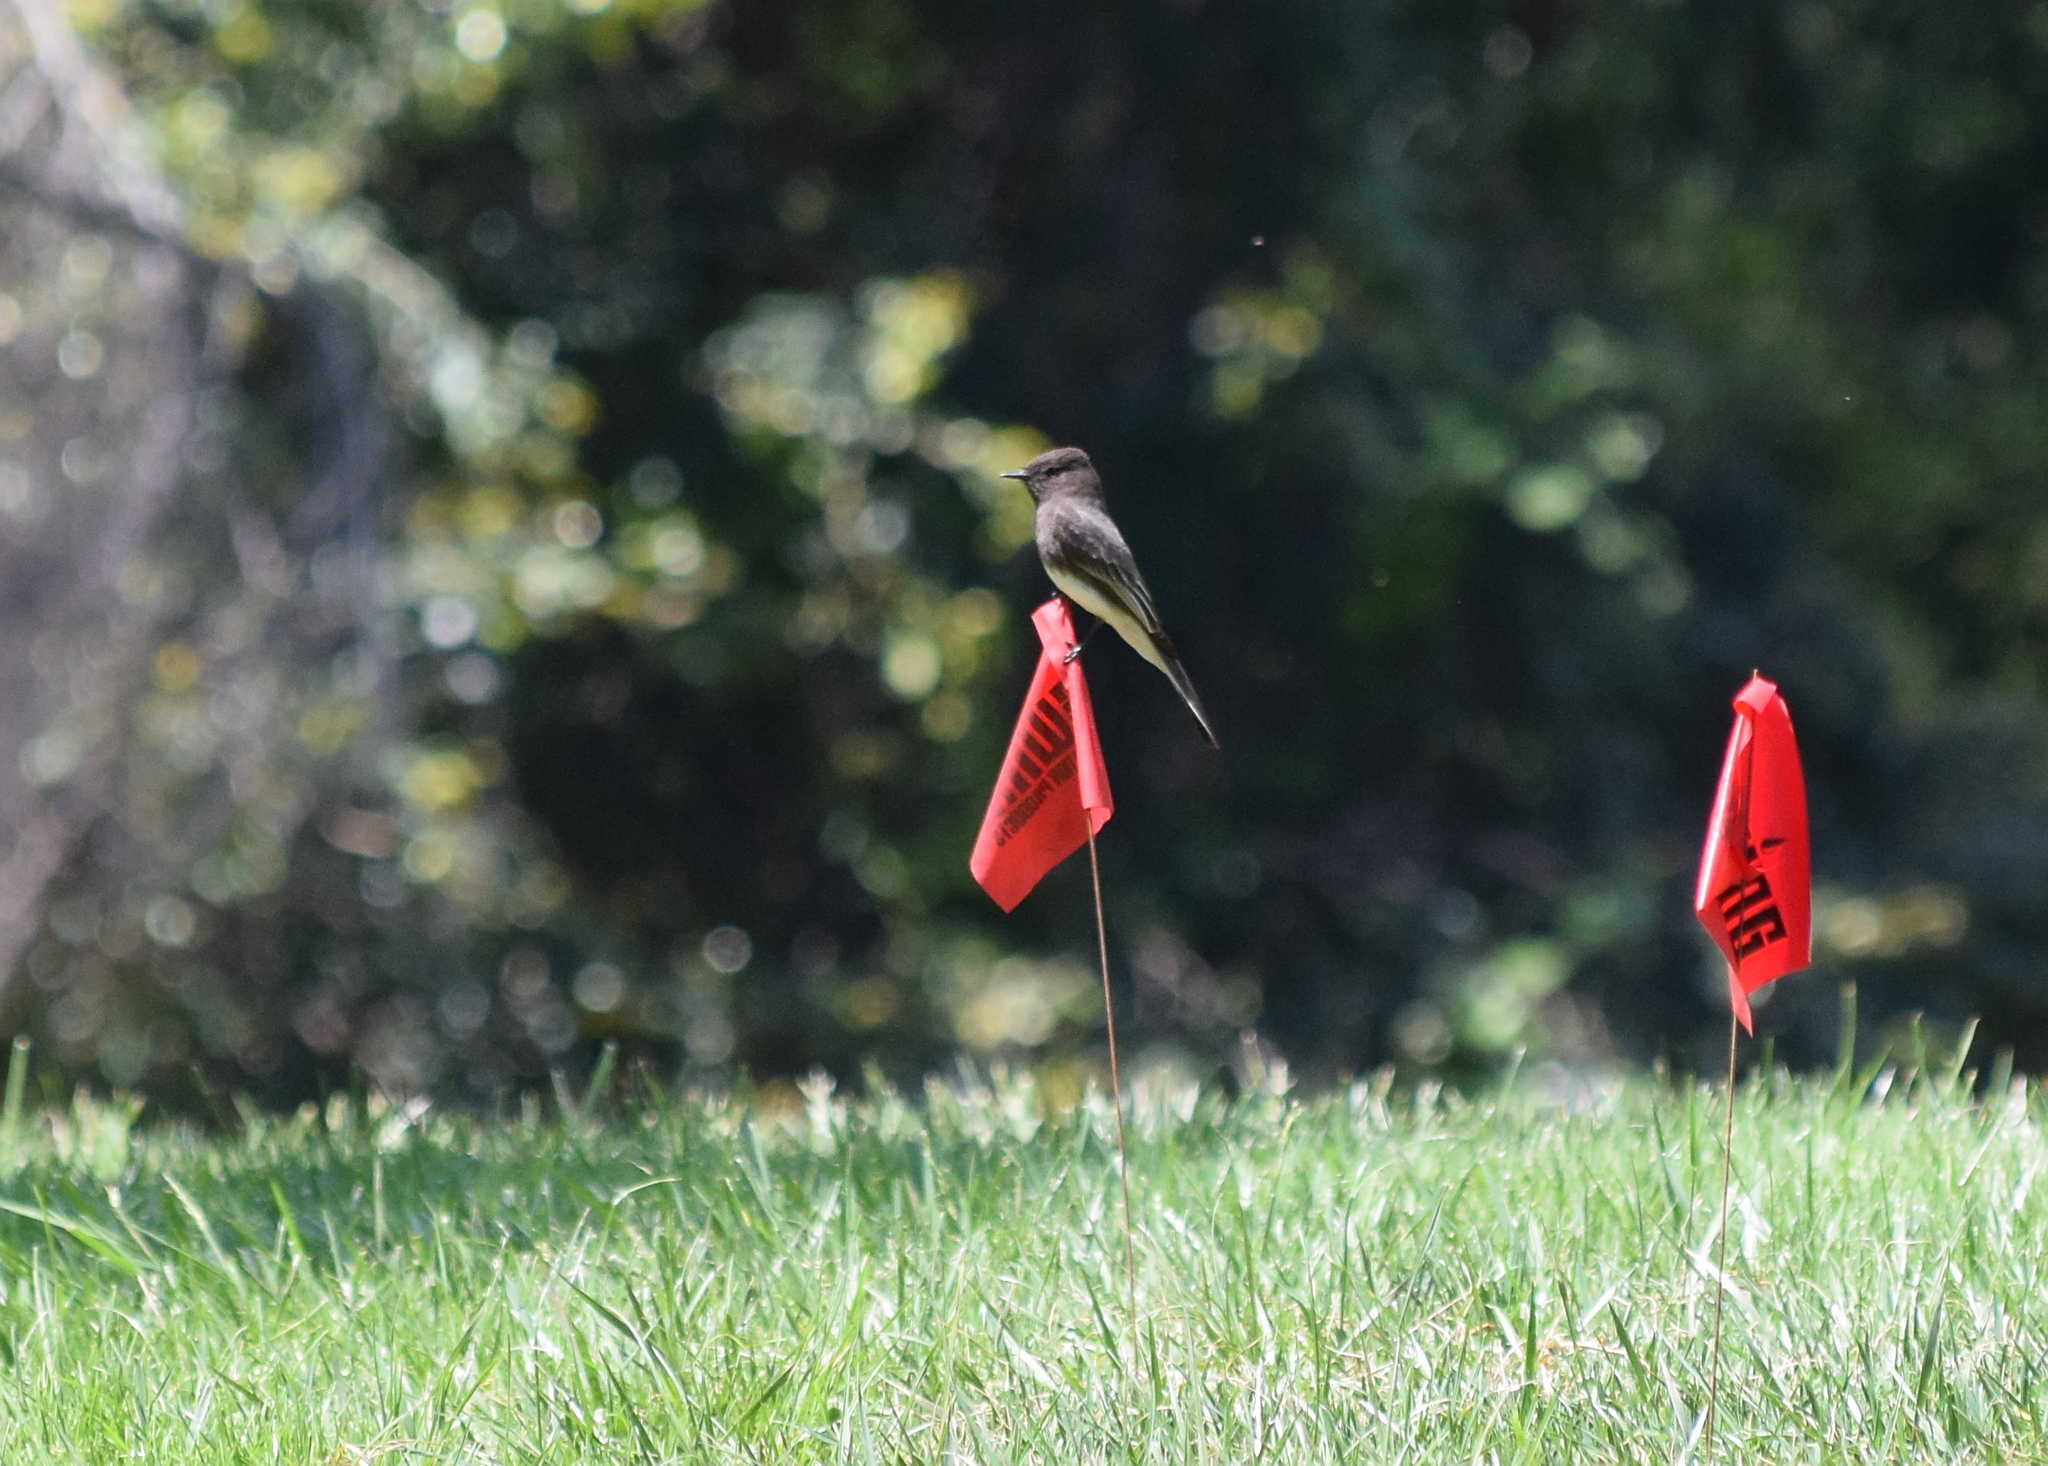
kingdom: Animalia
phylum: Chordata
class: Aves
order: Passeriformes
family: Tyrannidae
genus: Sayornis
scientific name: Sayornis nigricans
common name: Black phoebe
